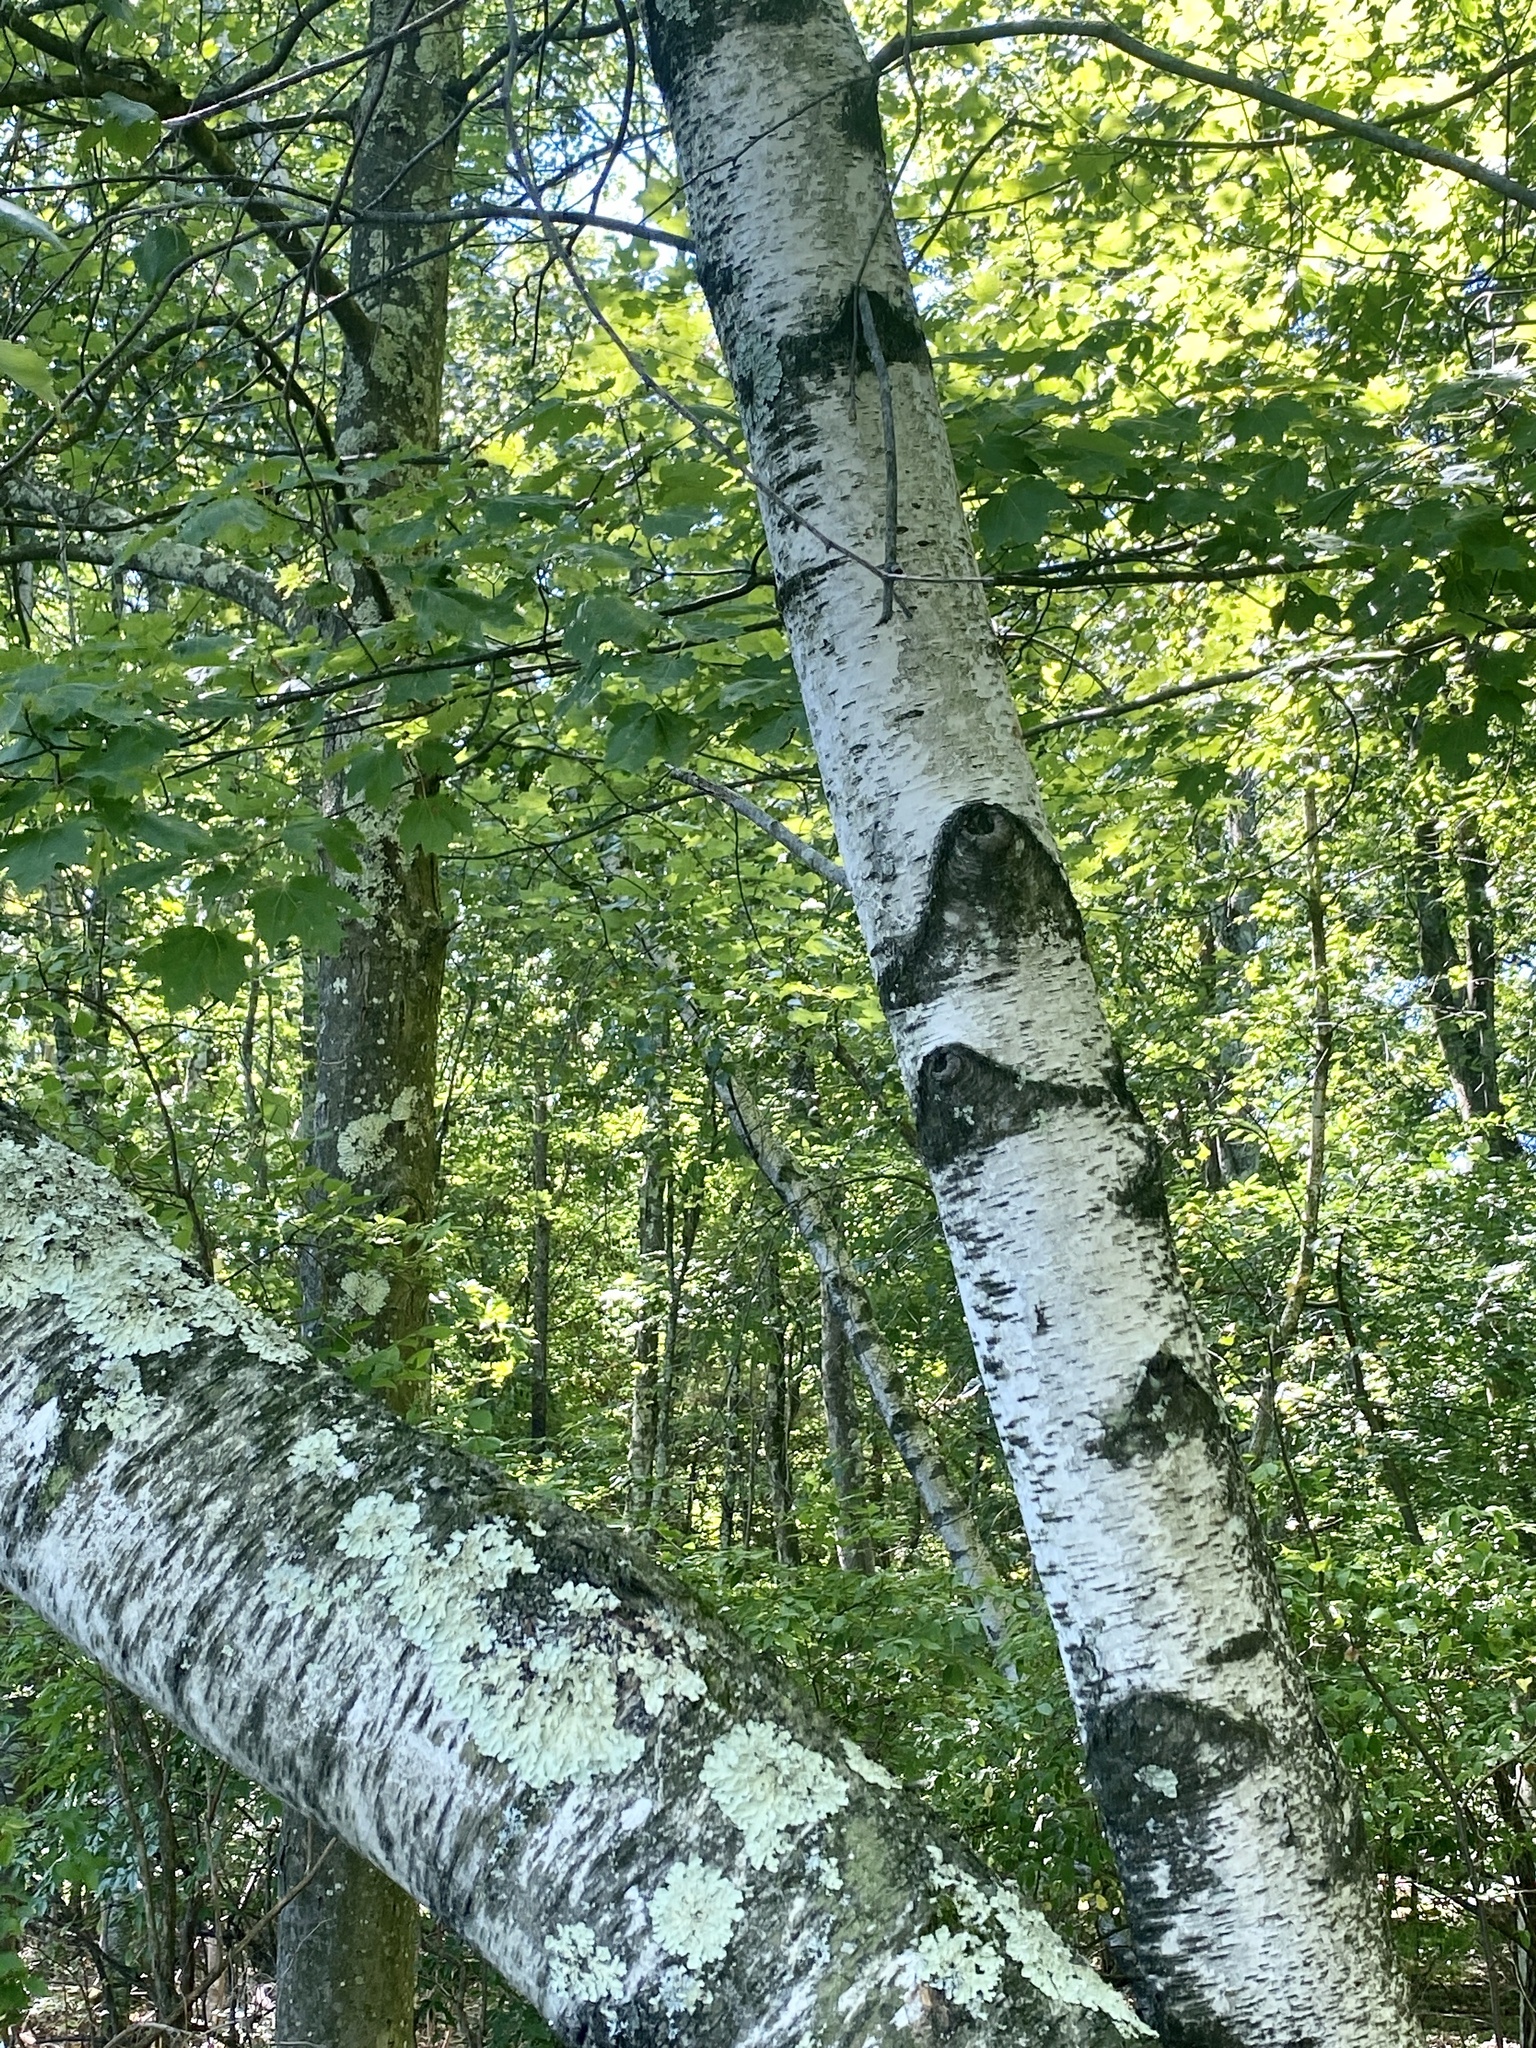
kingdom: Plantae
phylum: Tracheophyta
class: Magnoliopsida
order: Fagales
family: Betulaceae
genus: Betula
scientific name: Betula populifolia
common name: Fire birch
